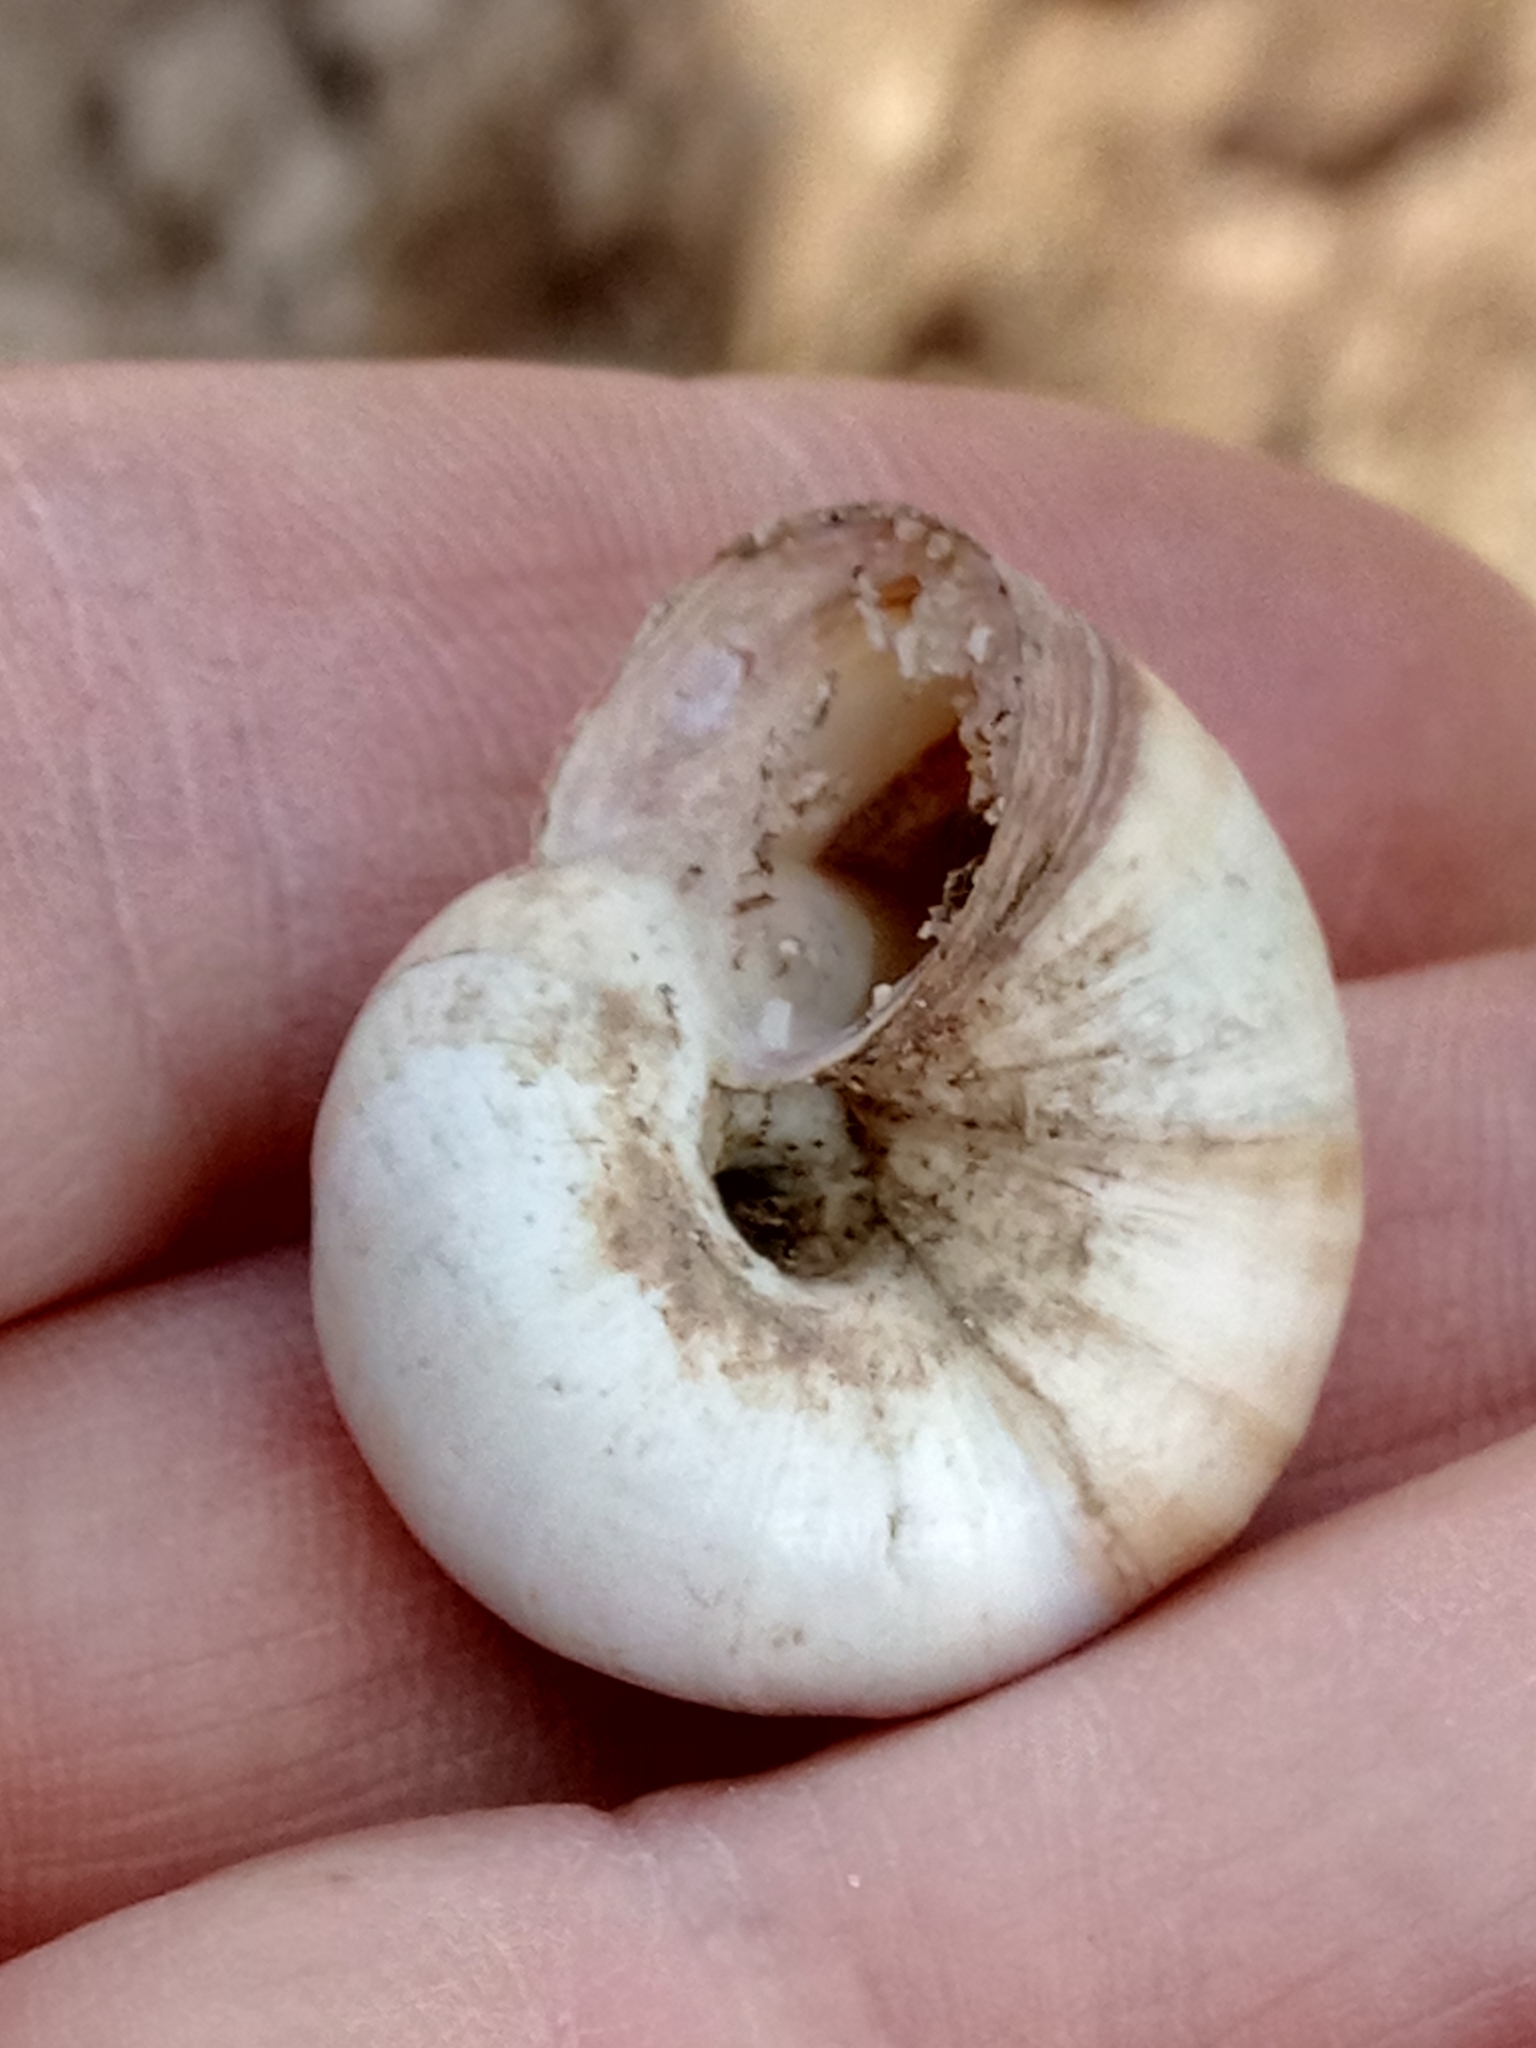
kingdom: Animalia
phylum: Mollusca
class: Gastropoda
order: Stylommatophora
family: Geomitridae
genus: Xerosecta
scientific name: Xerosecta cespitum
